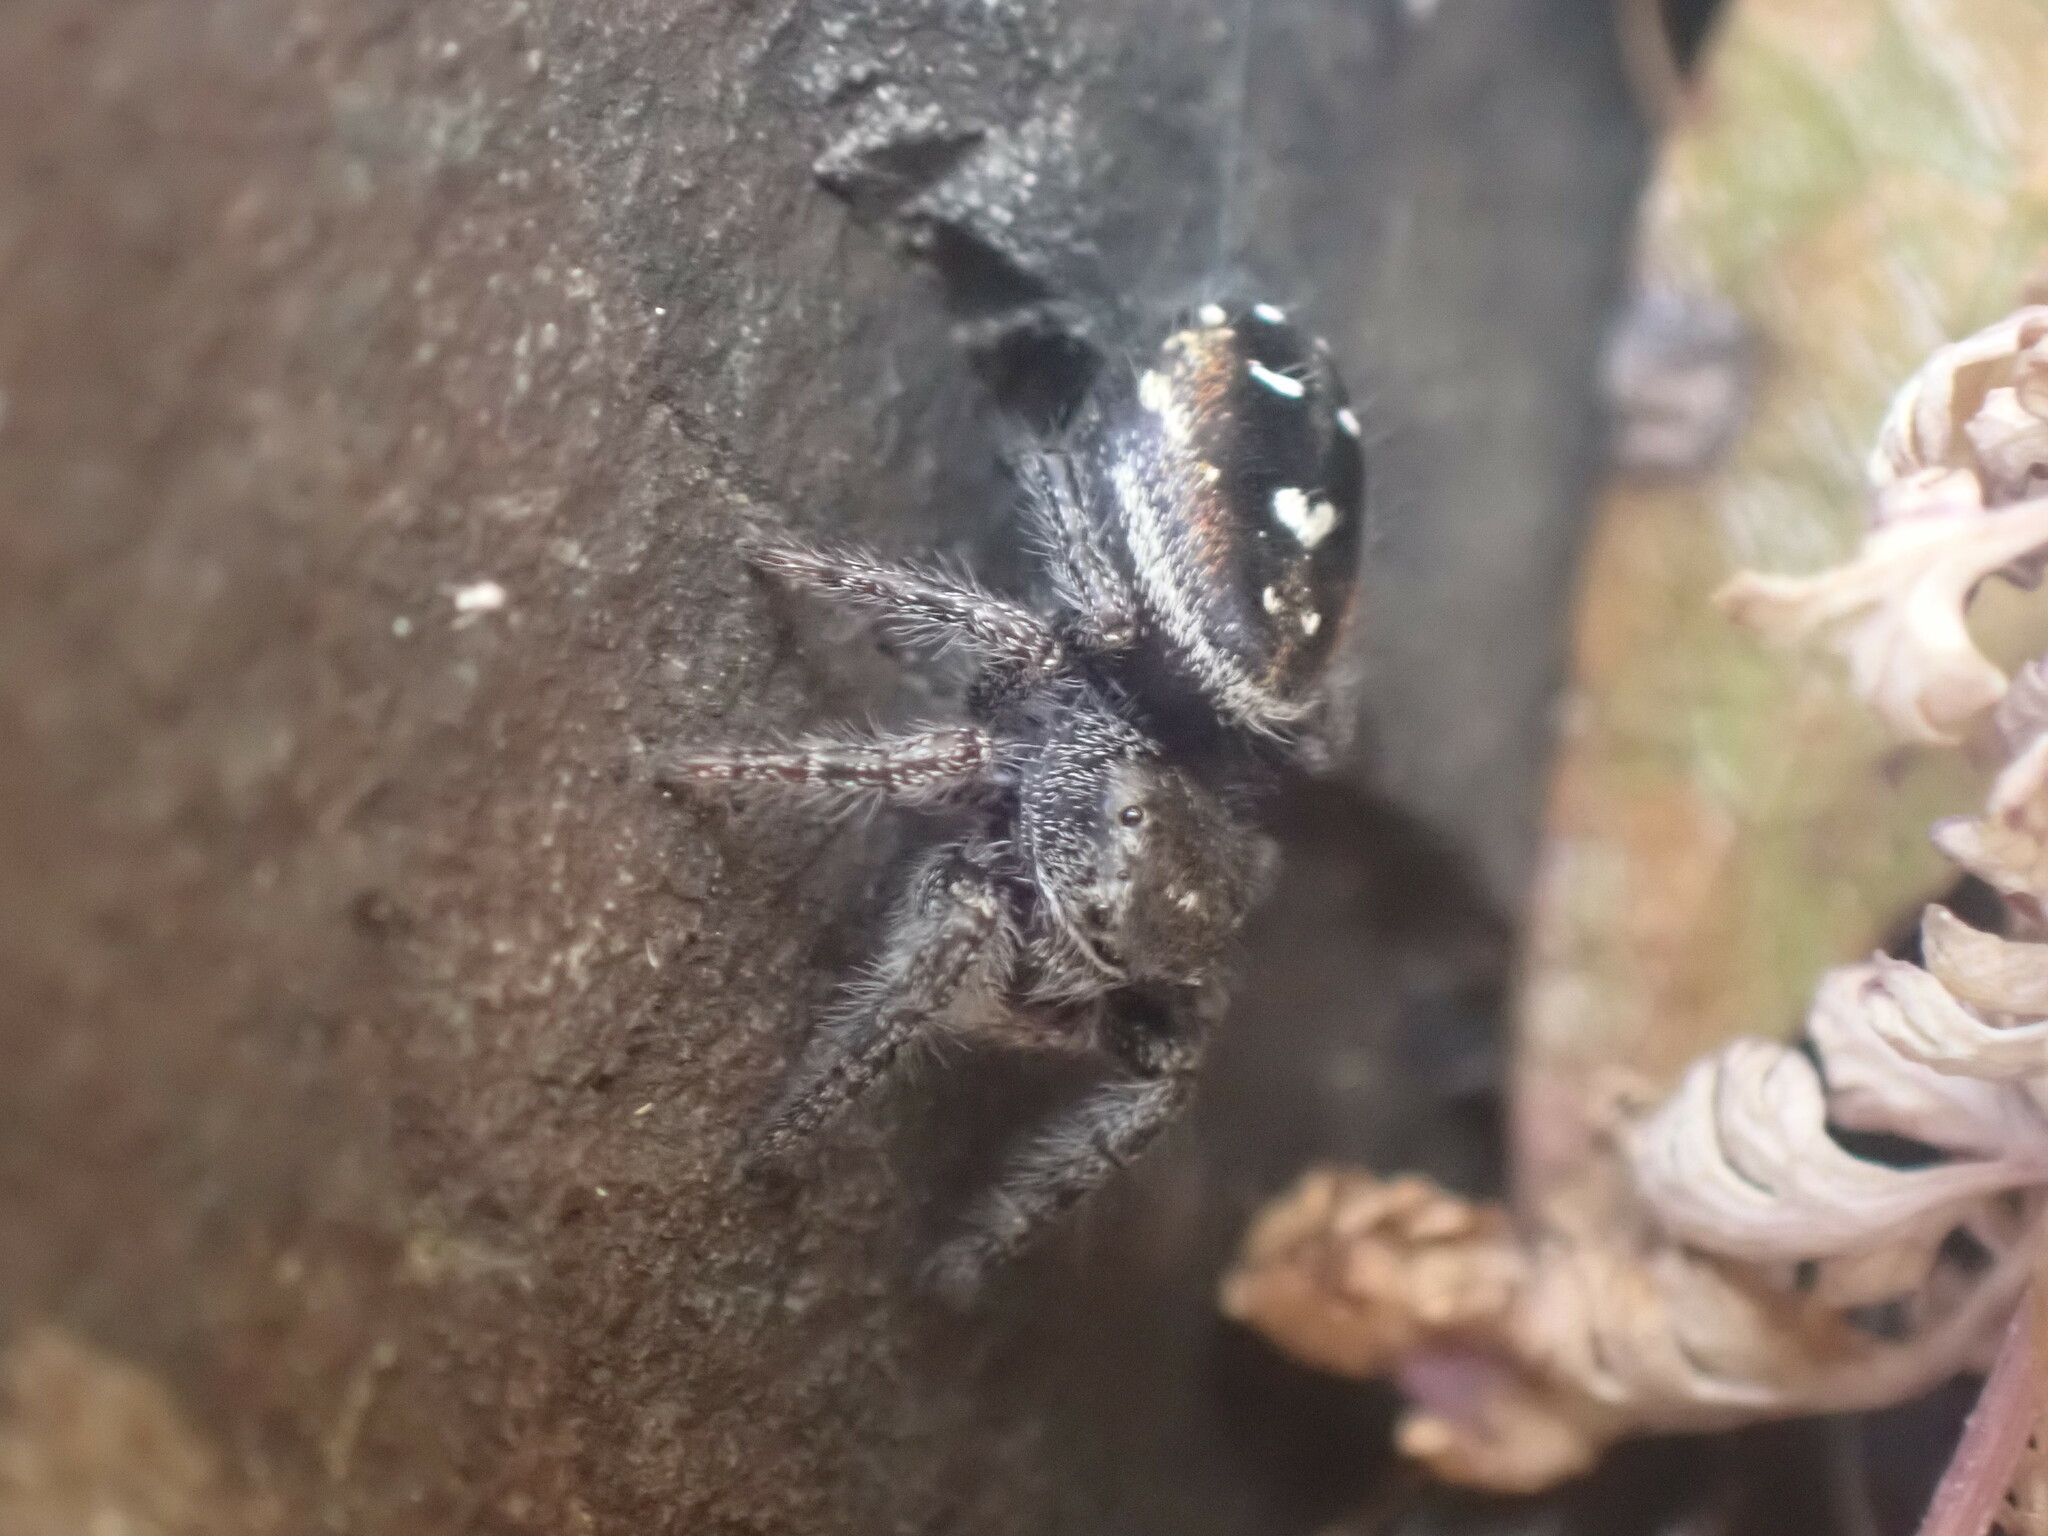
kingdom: Animalia
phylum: Arthropoda
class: Arachnida
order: Araneae
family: Salticidae
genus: Phidippus
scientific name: Phidippus johnsoni
